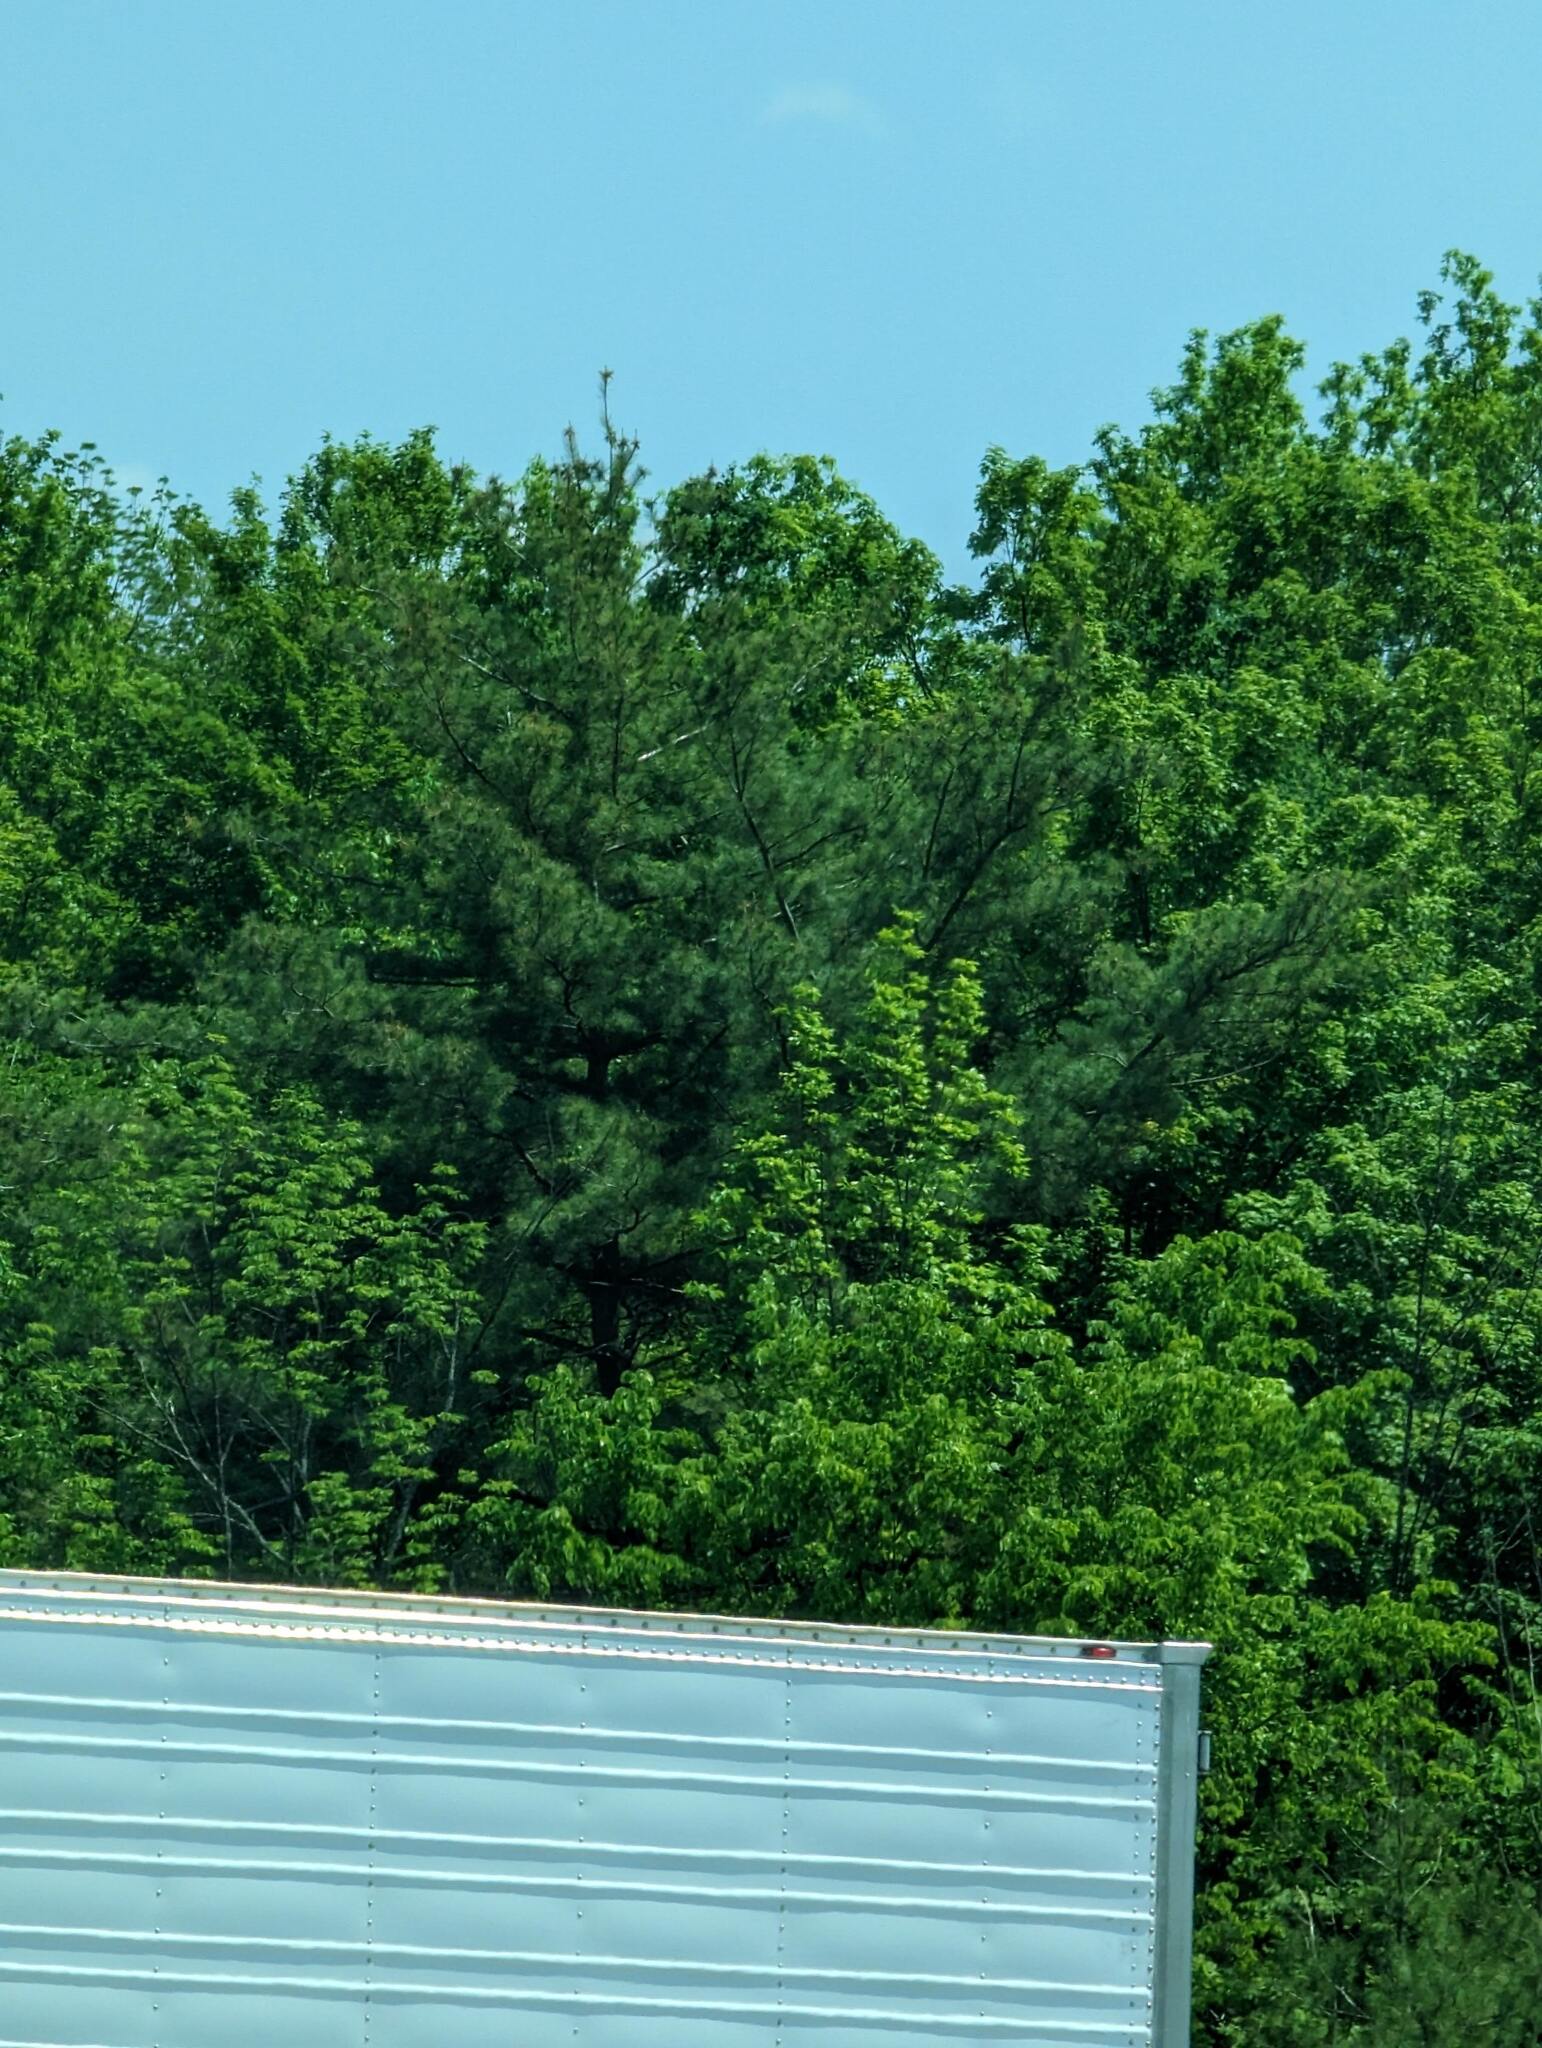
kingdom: Plantae
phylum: Tracheophyta
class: Pinopsida
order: Pinales
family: Pinaceae
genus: Pinus
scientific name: Pinus strobus
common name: Weymouth pine
